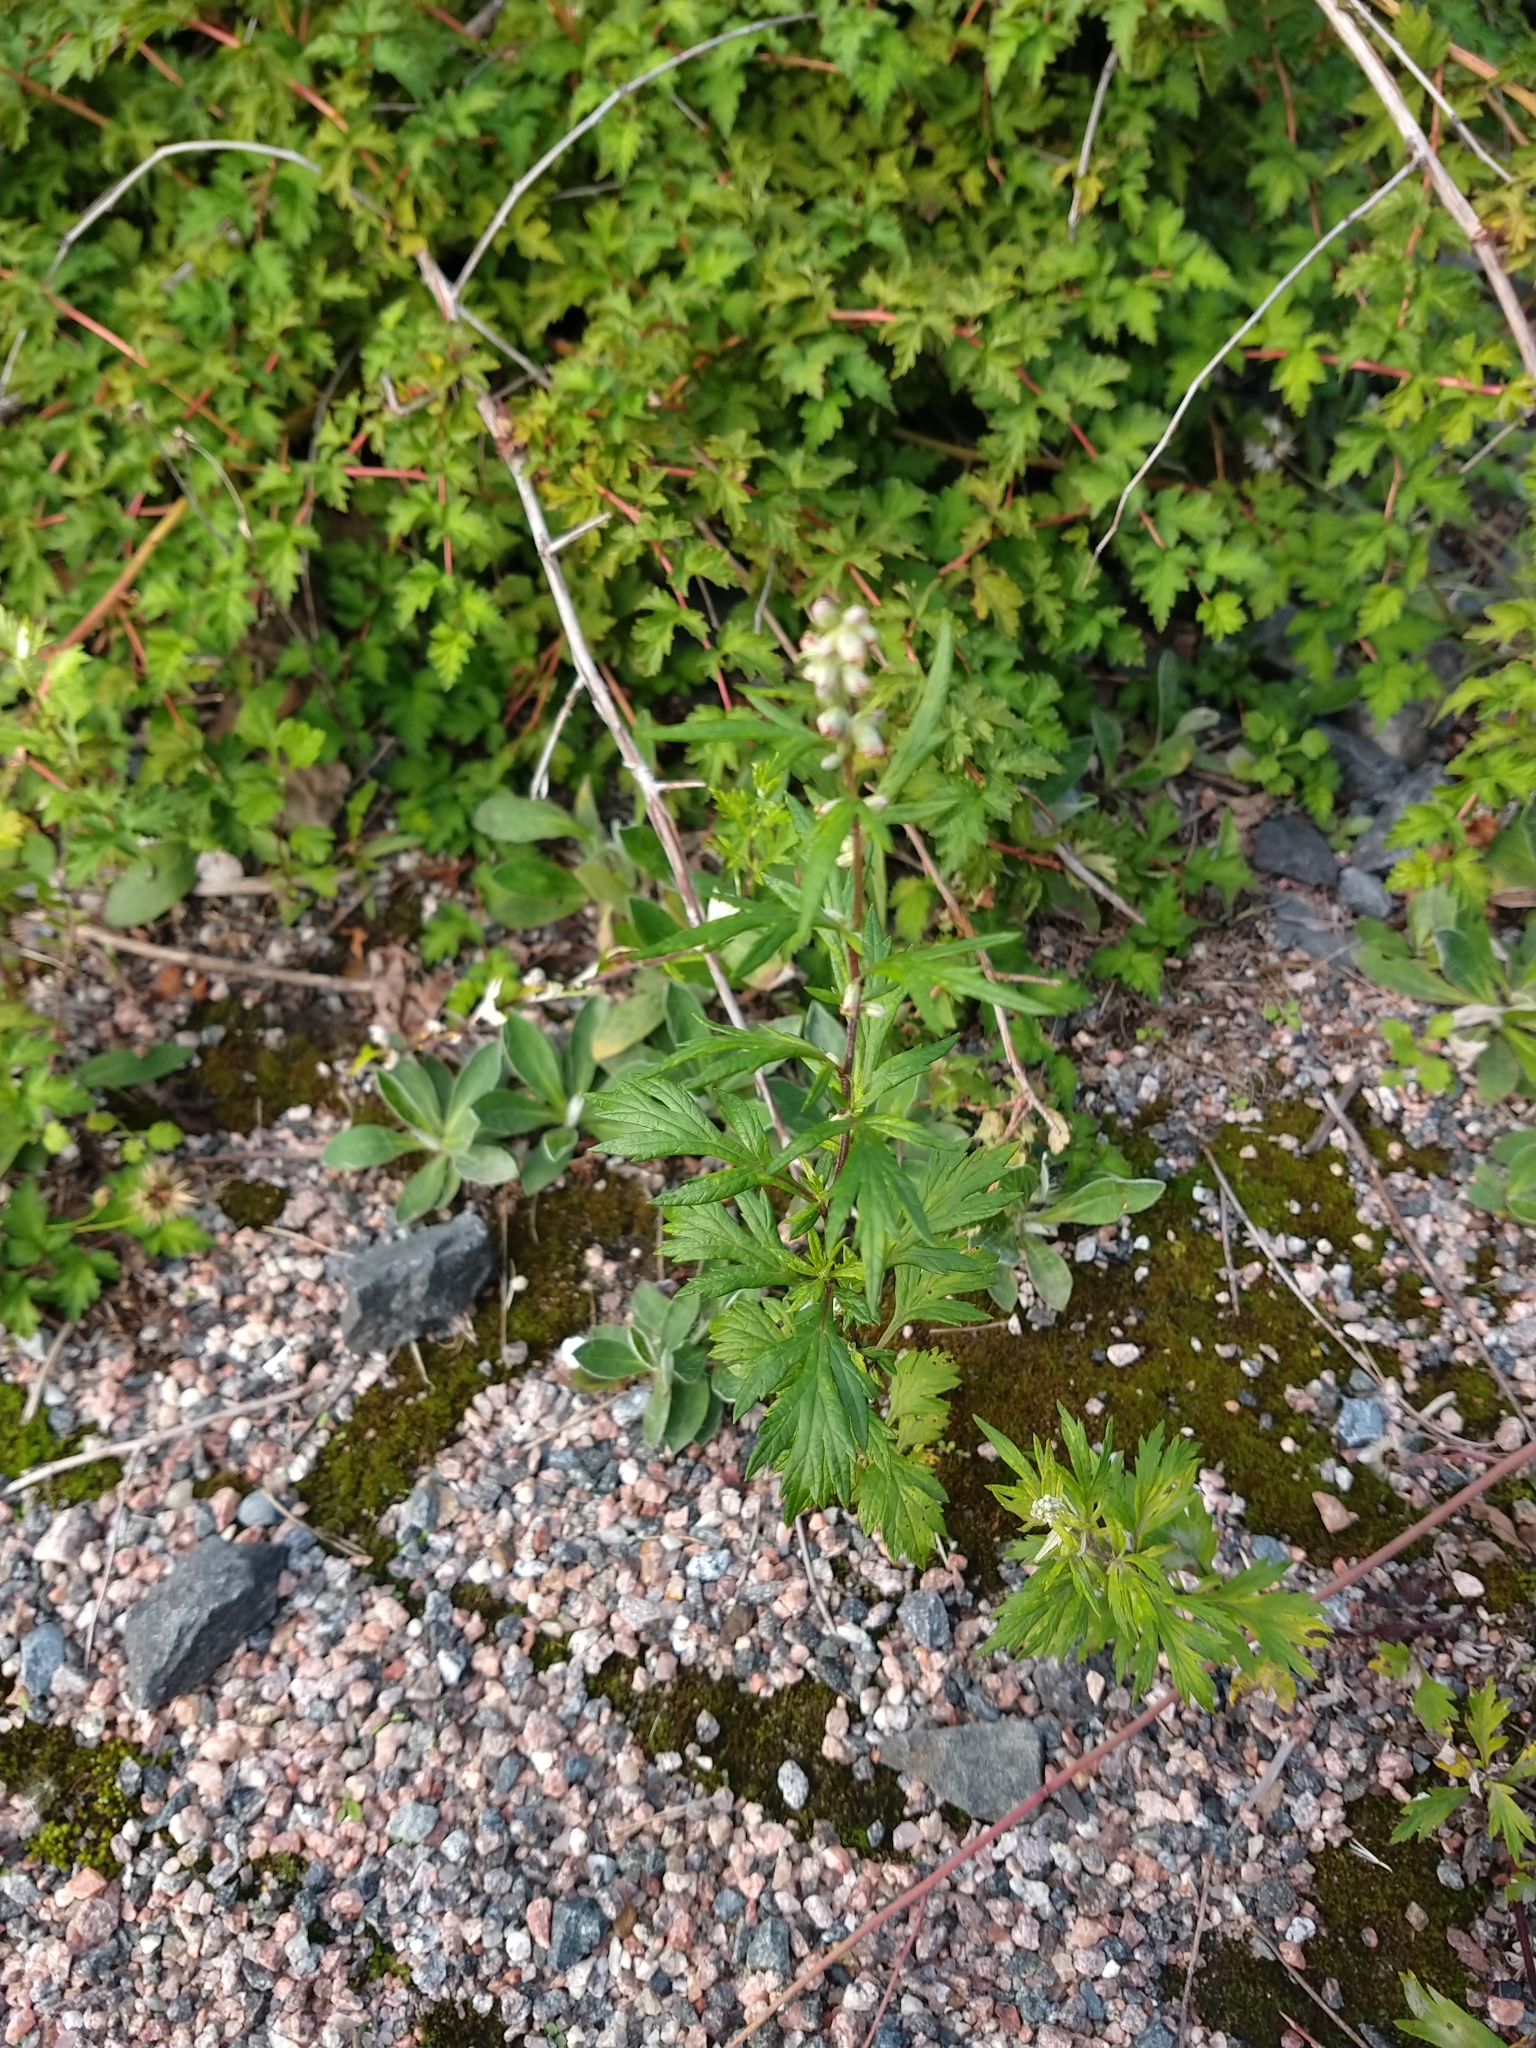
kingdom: Plantae
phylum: Tracheophyta
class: Magnoliopsida
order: Asterales
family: Asteraceae
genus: Artemisia
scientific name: Artemisia vulgaris
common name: Mugwort
